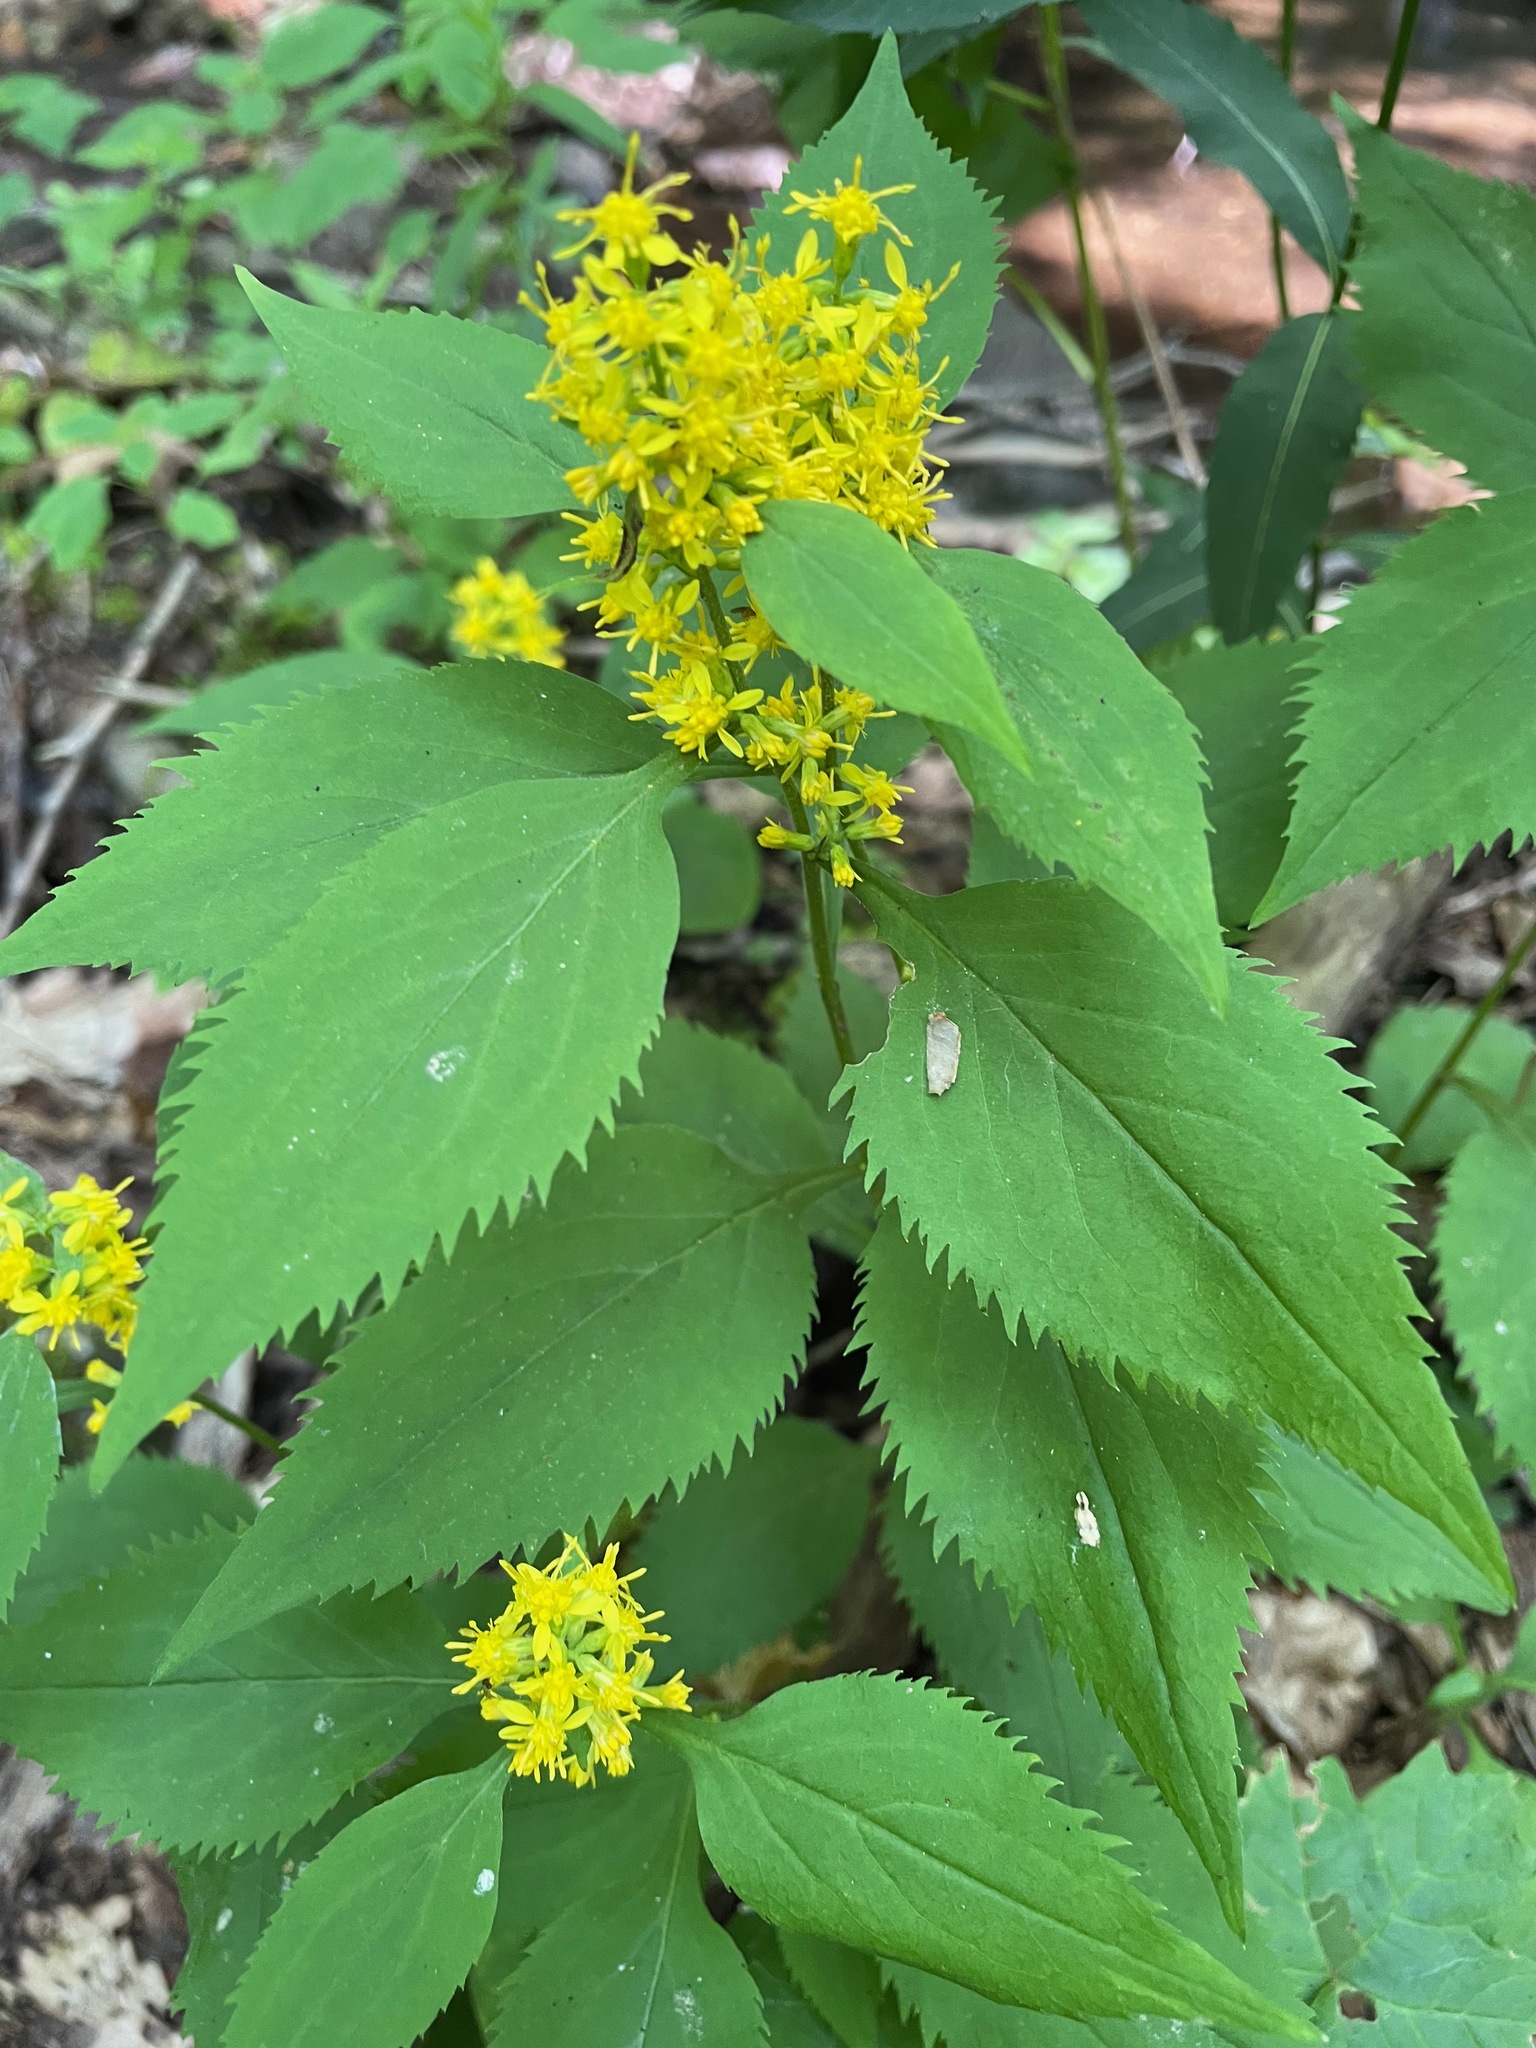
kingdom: Plantae
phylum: Tracheophyta
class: Magnoliopsida
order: Asterales
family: Asteraceae
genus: Solidago
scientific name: Solidago flexicaulis
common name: Zig-zag goldenrod
